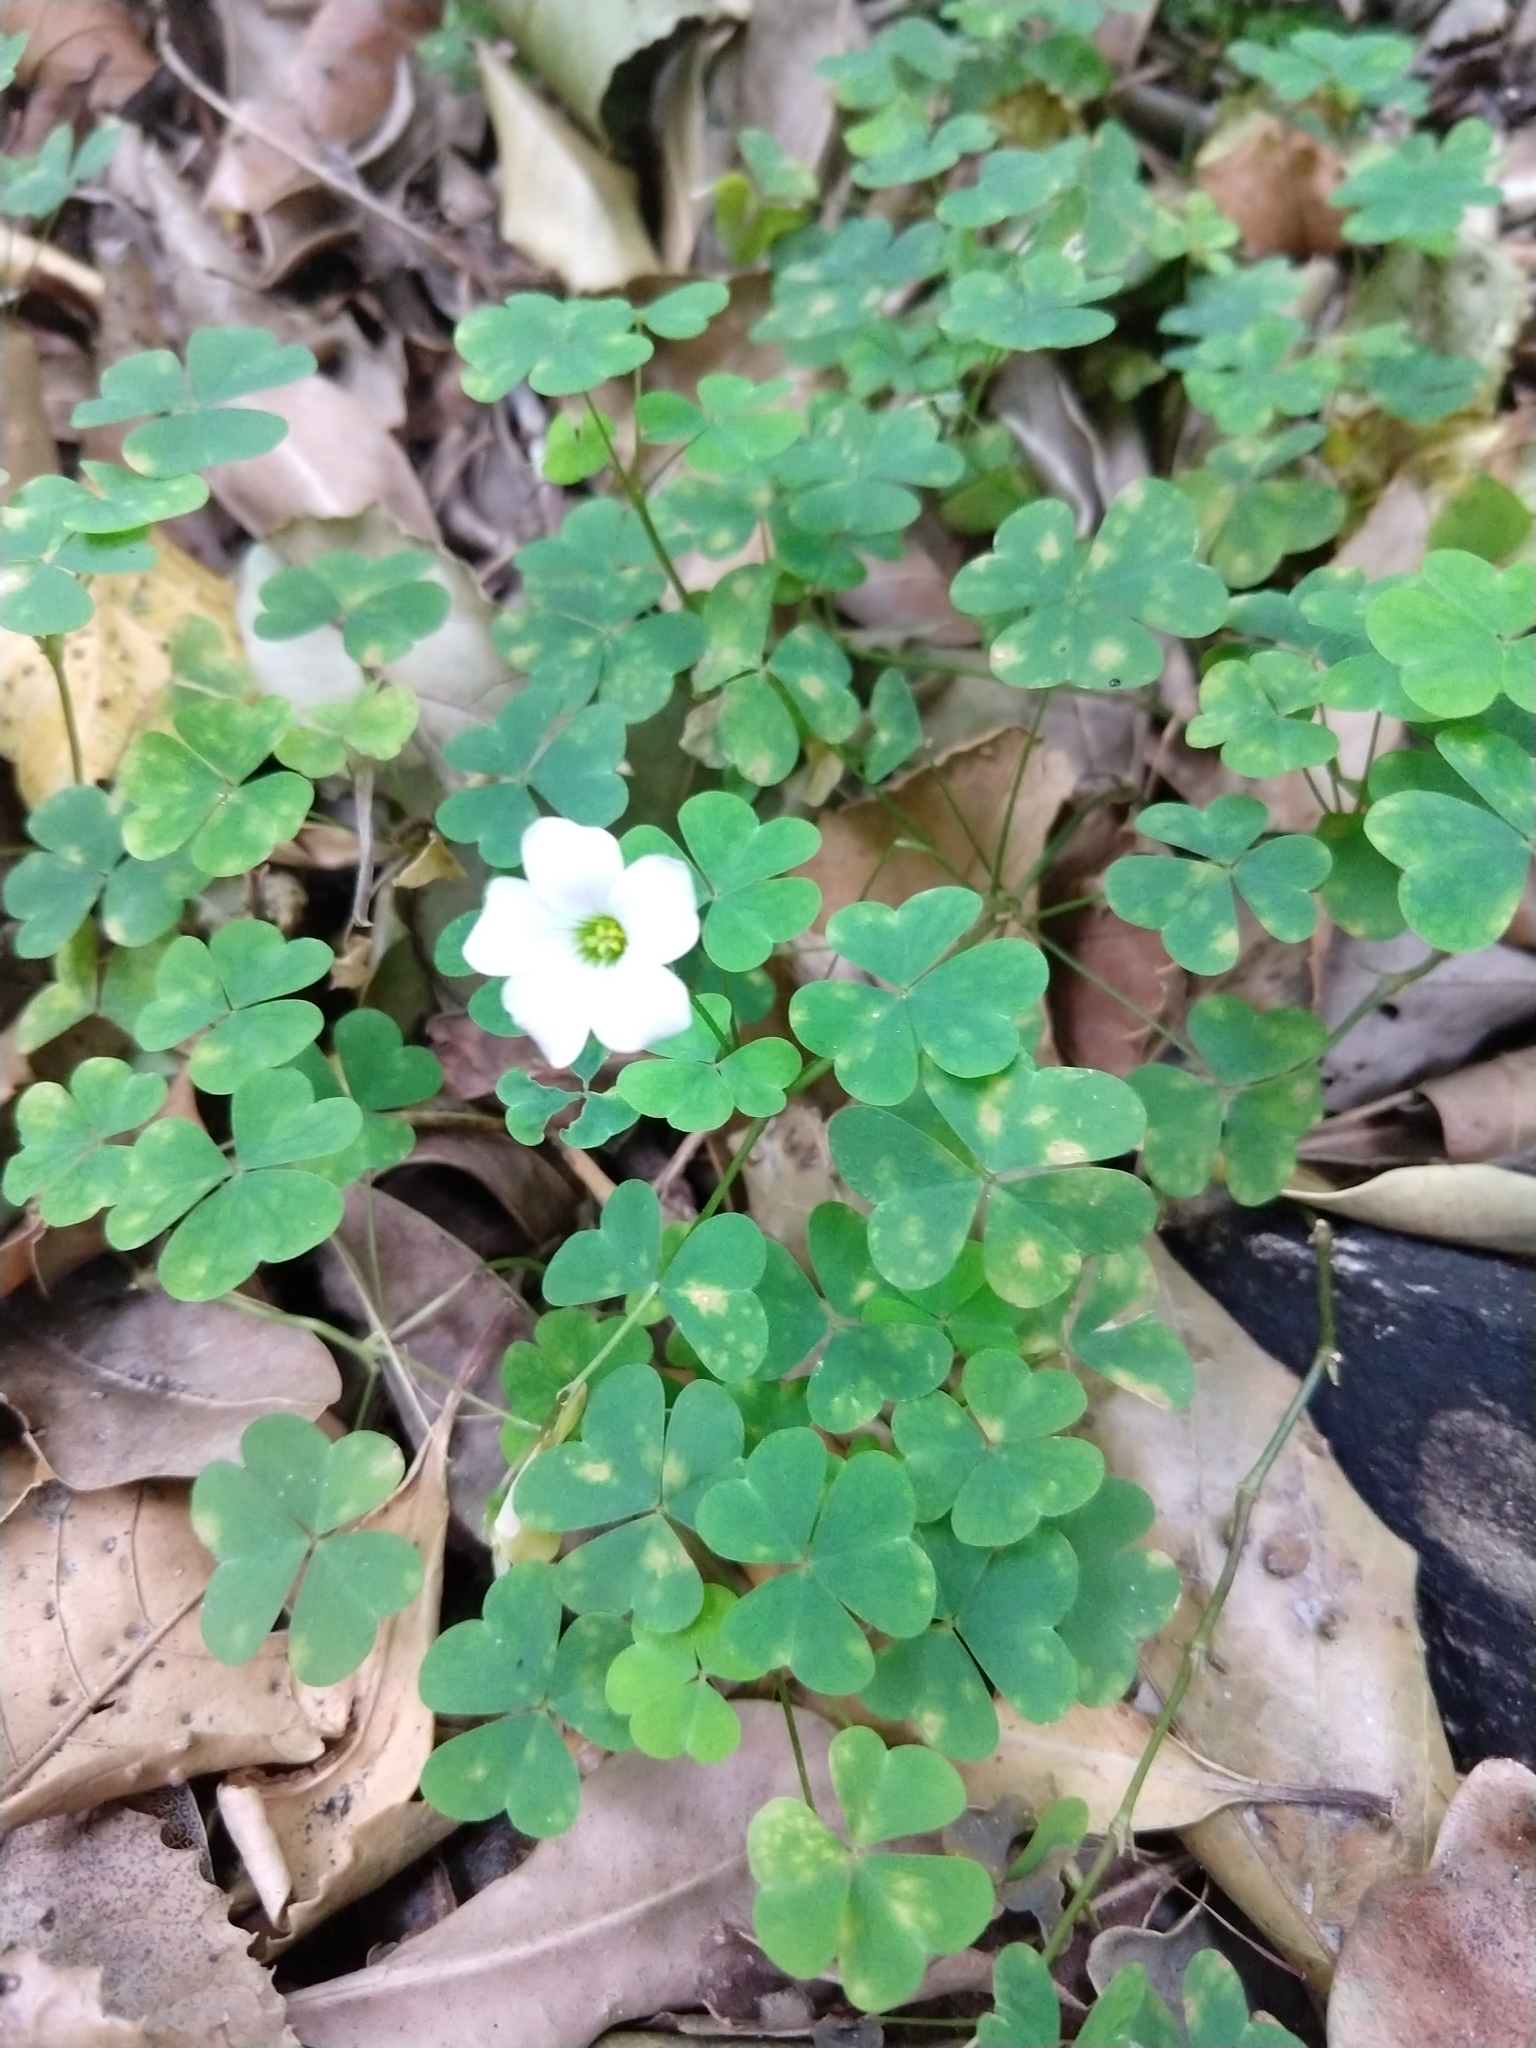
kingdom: Plantae
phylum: Tracheophyta
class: Magnoliopsida
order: Oxalidales
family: Oxalidaceae
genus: Oxalis
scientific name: Oxalis incarnata
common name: Pale pink-sorrel
